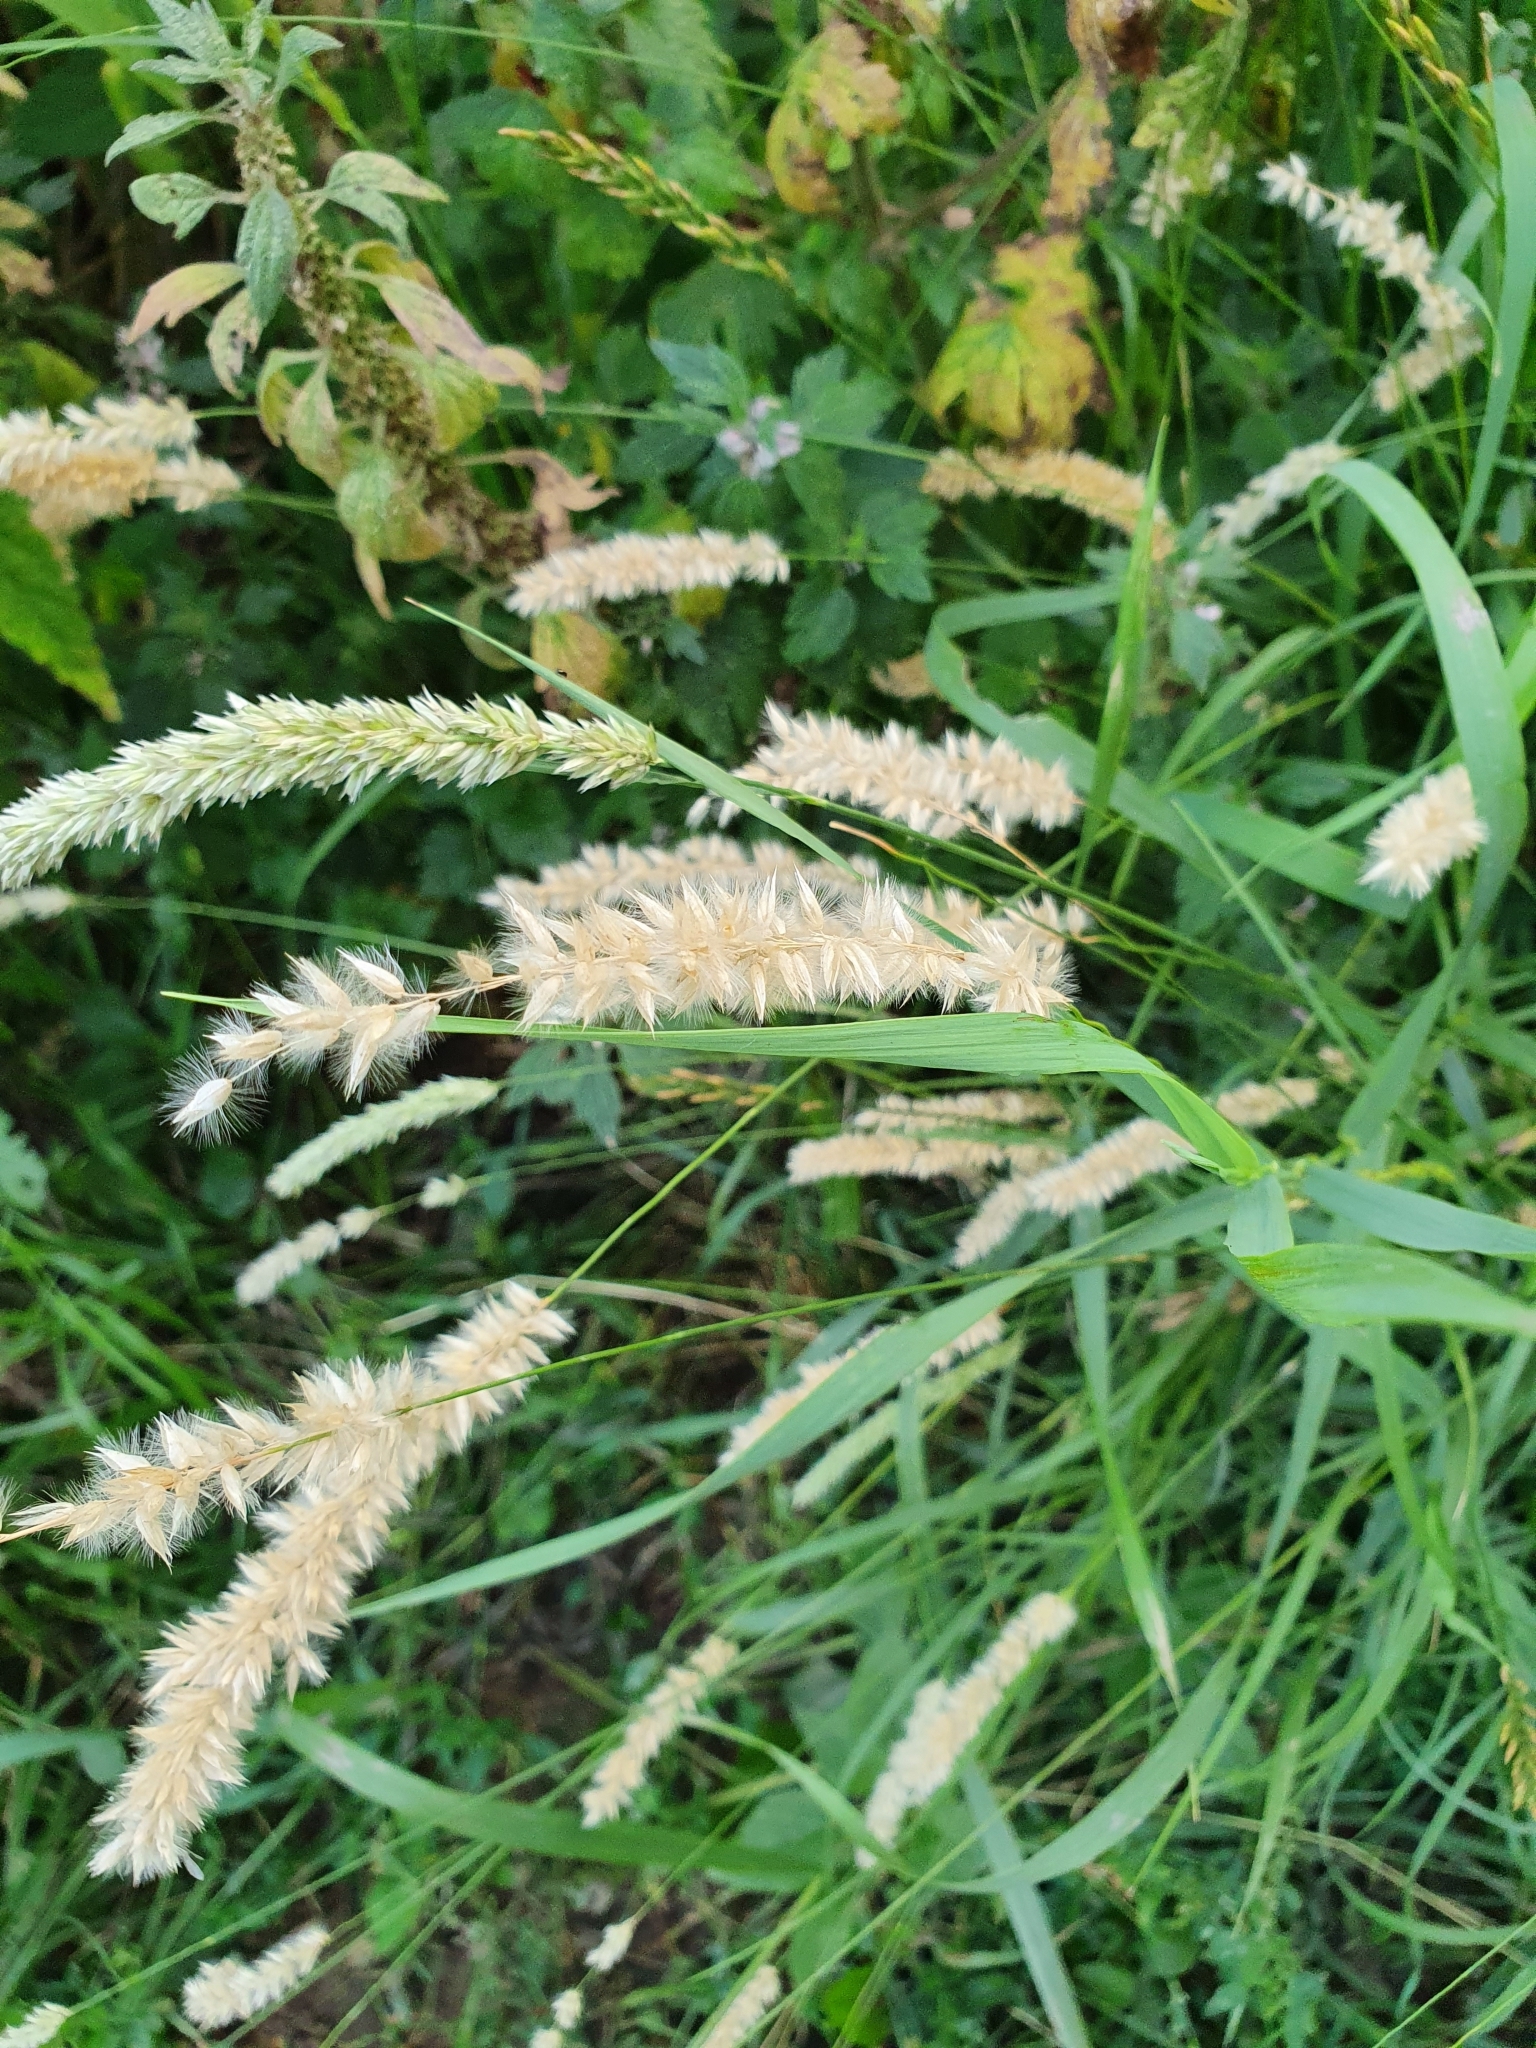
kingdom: Plantae
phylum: Tracheophyta
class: Liliopsida
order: Poales
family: Poaceae
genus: Melica
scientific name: Melica transsilvanica
